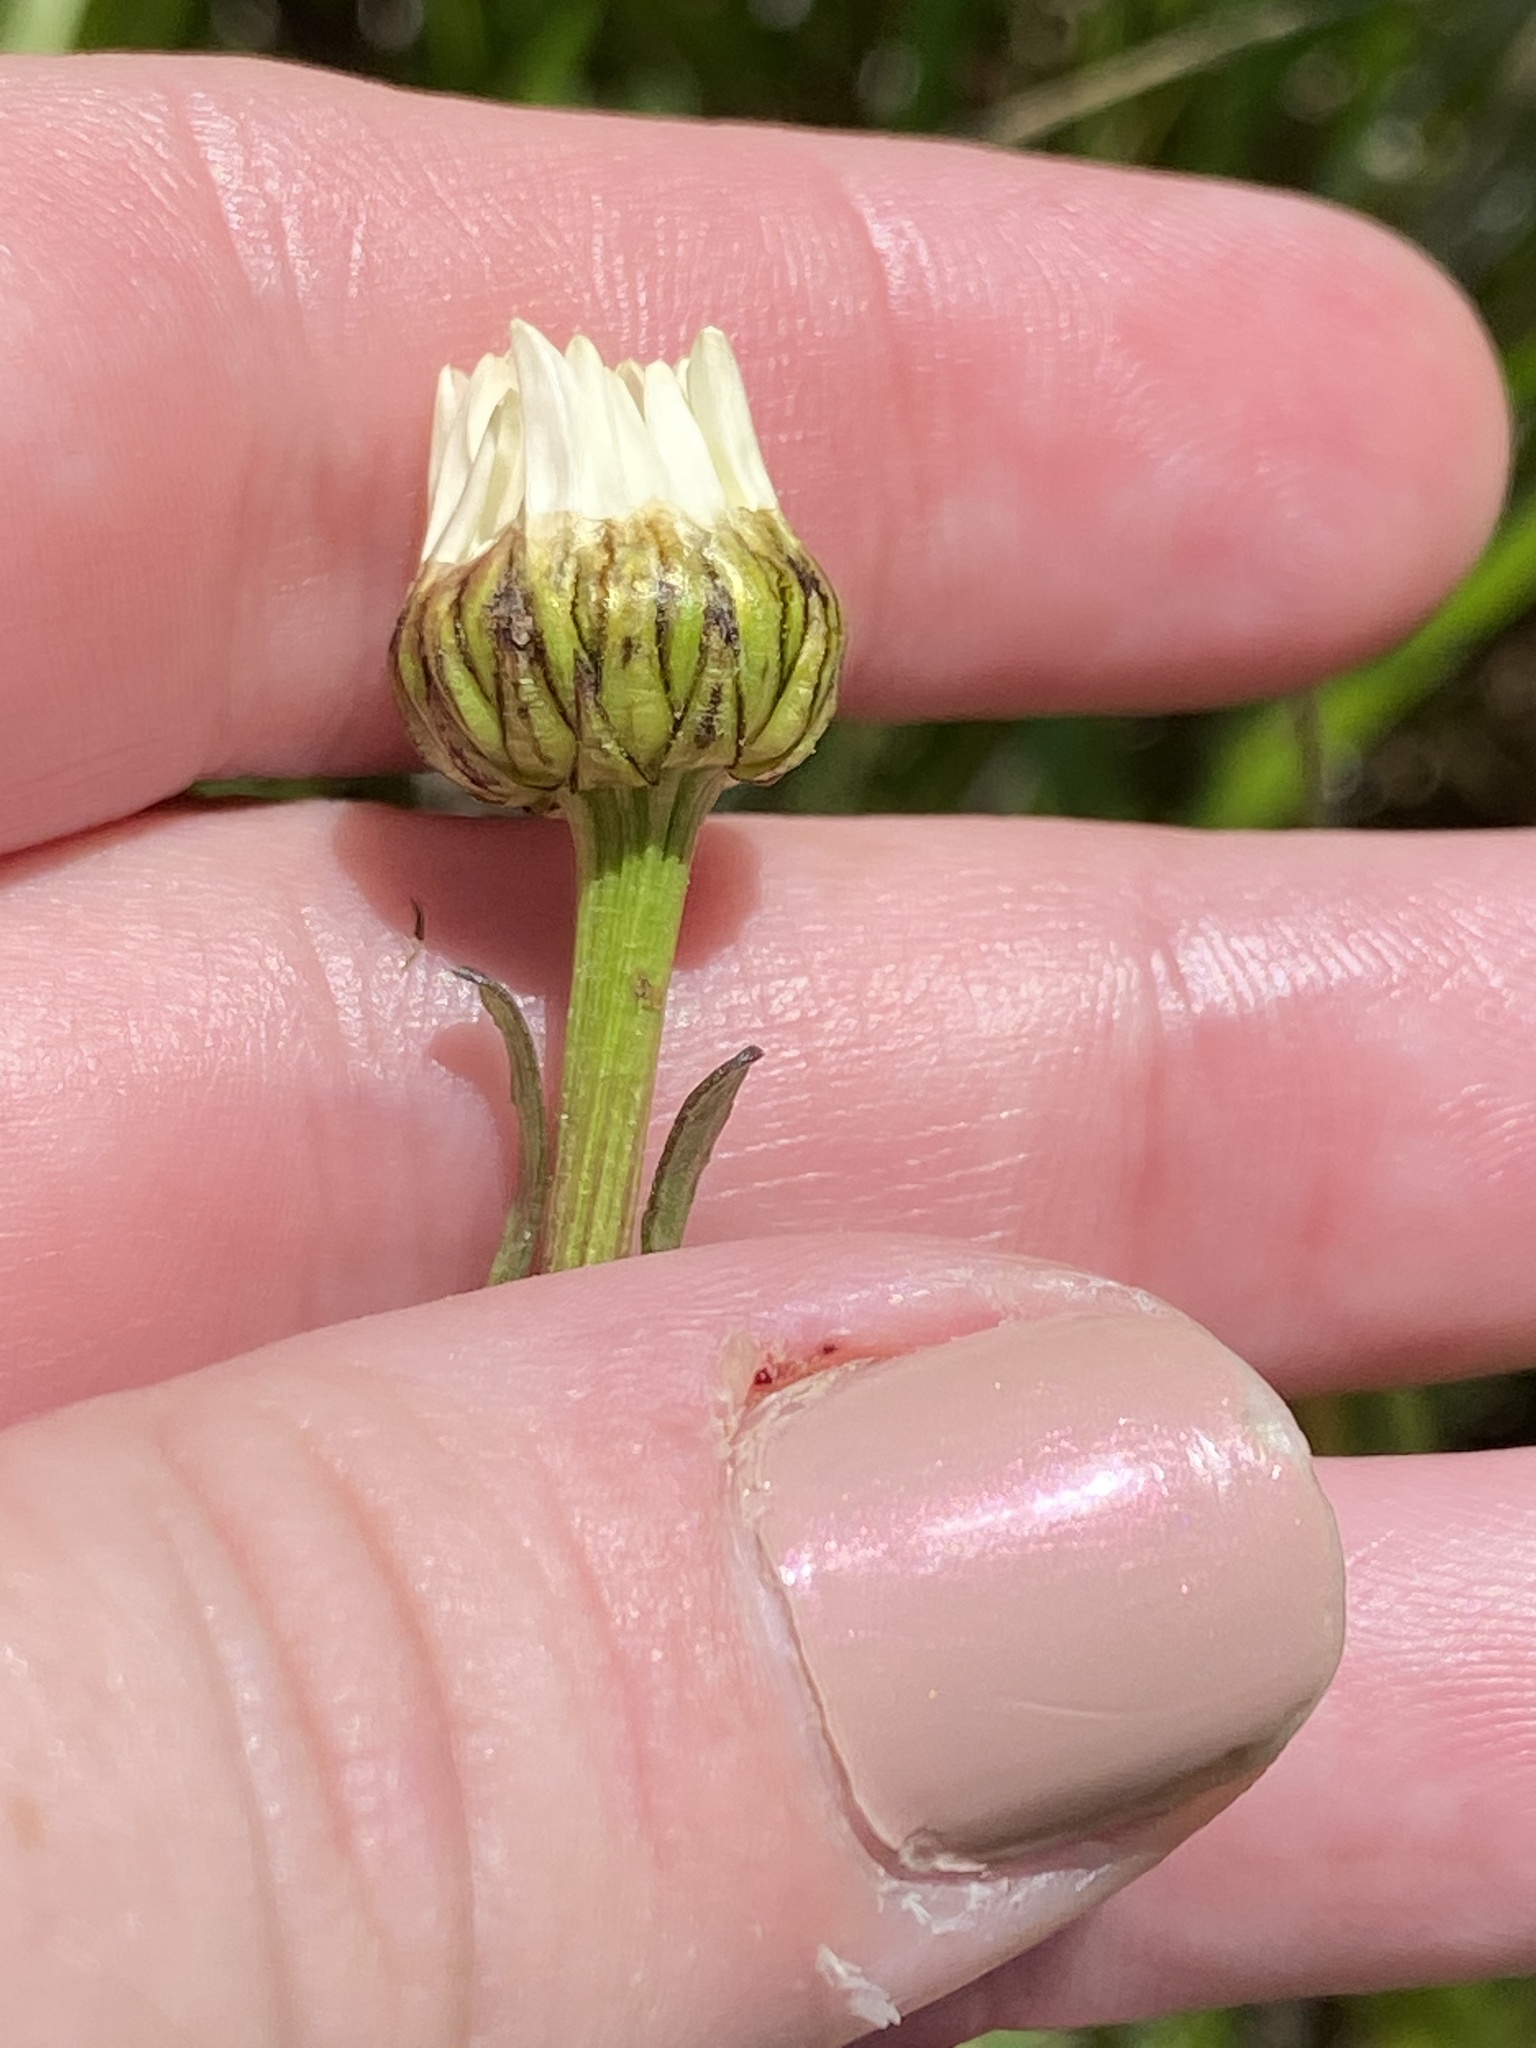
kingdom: Plantae
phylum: Tracheophyta
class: Magnoliopsida
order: Asterales
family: Asteraceae
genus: Leucanthemum
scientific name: Leucanthemum vulgare
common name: Oxeye daisy
